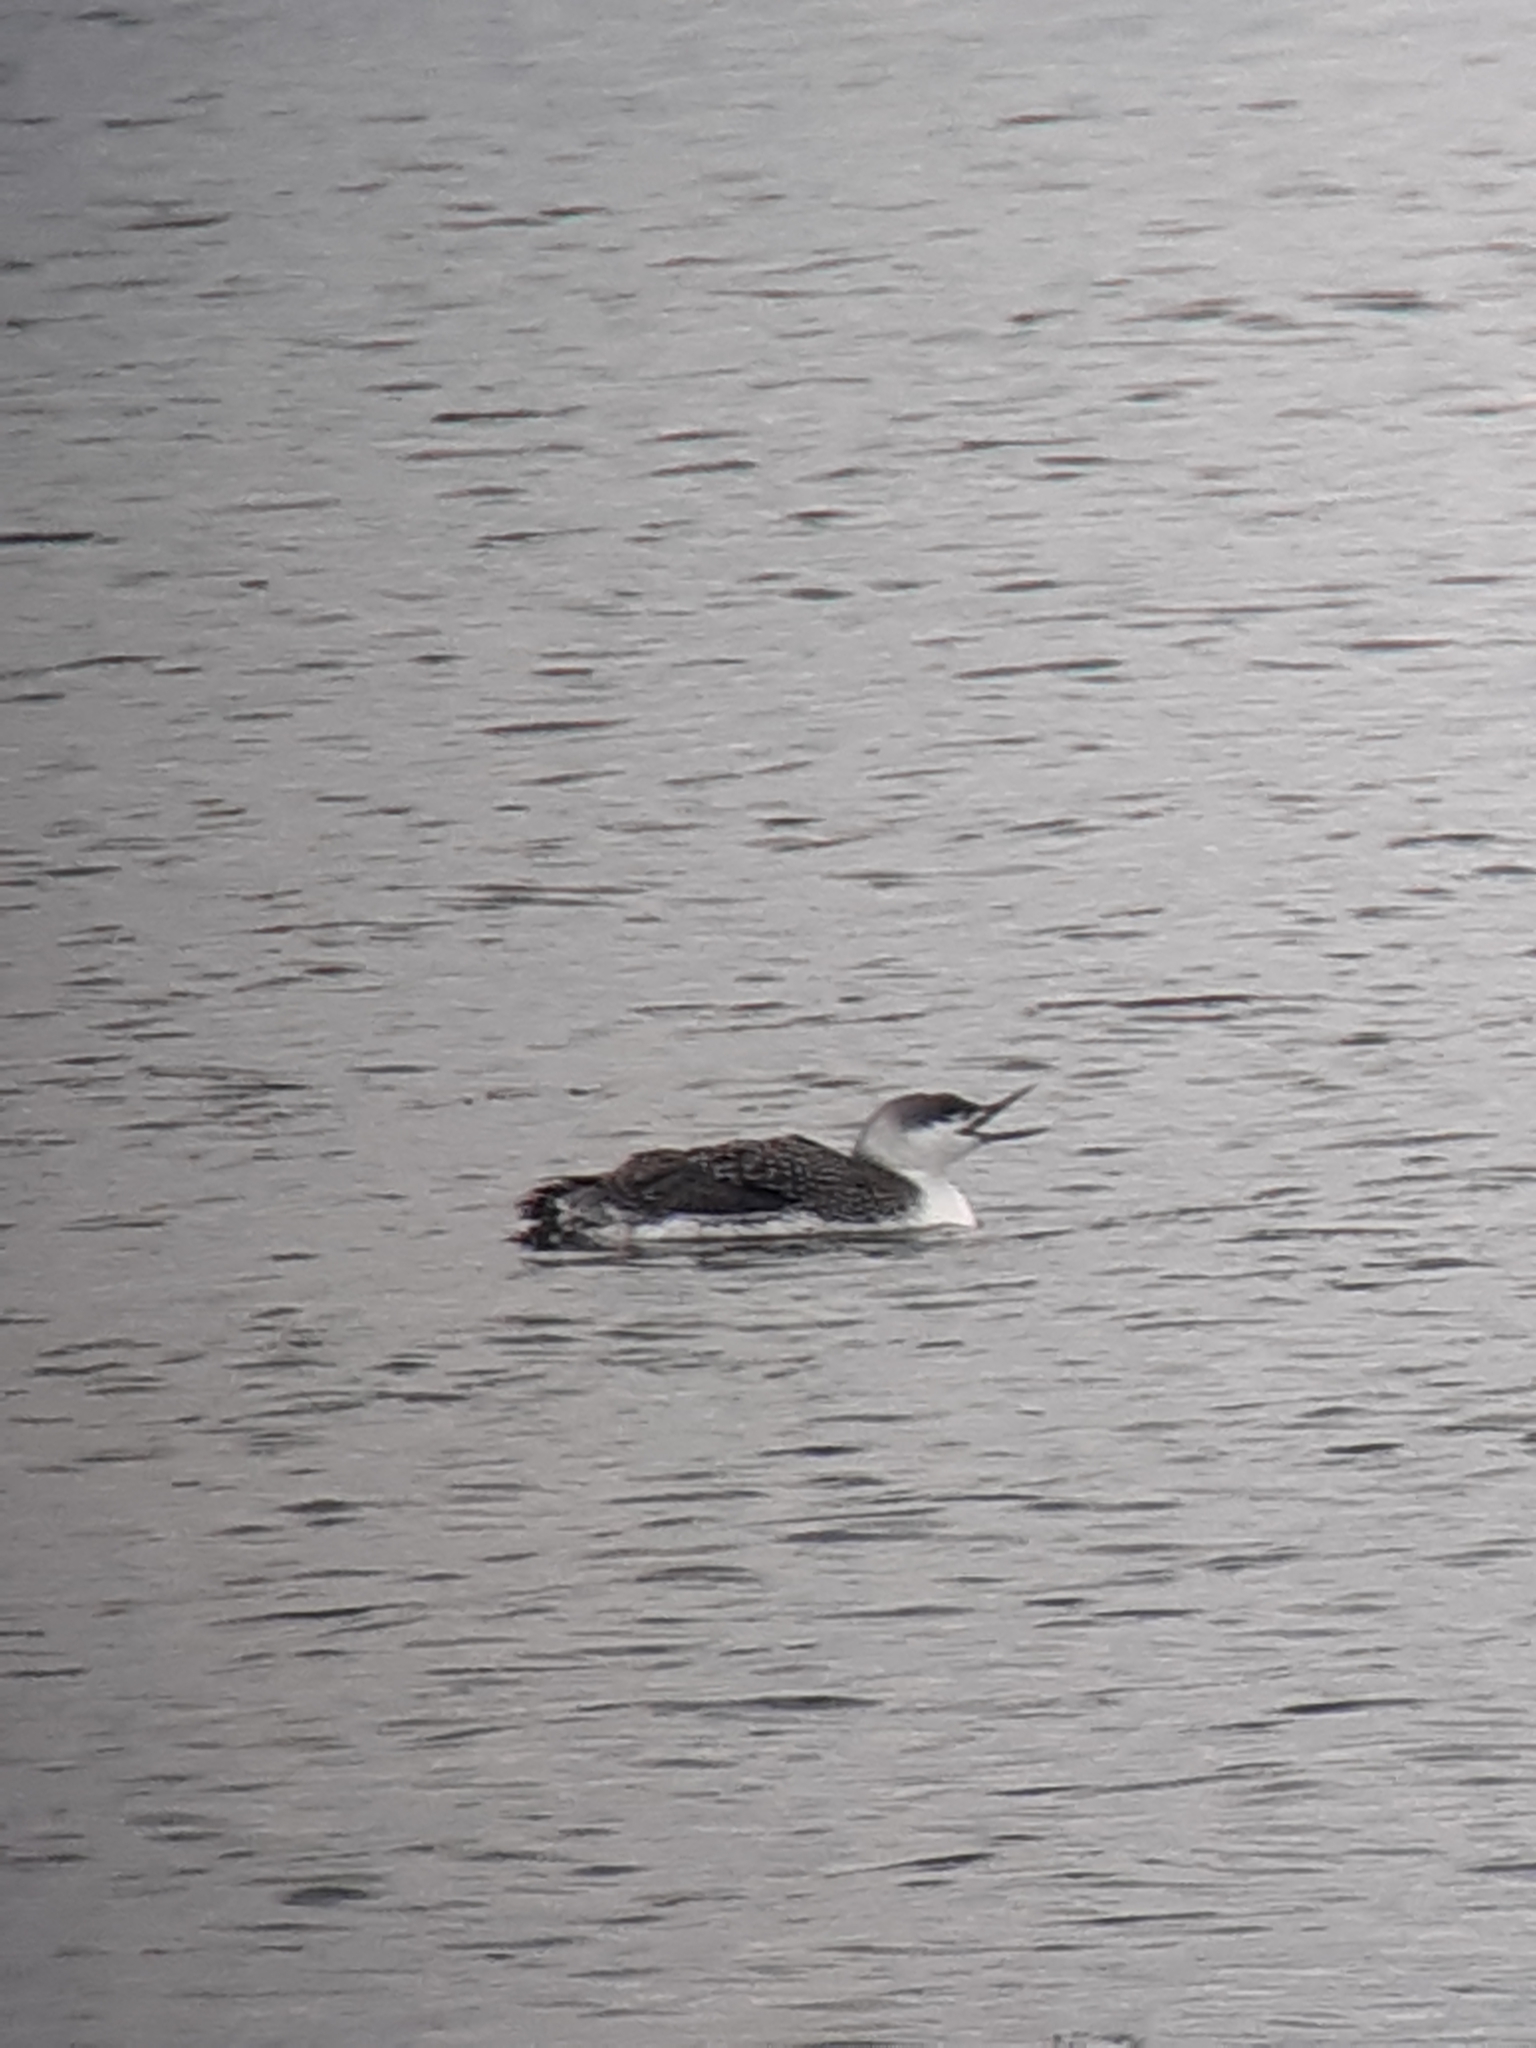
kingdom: Animalia
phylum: Chordata
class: Aves
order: Gaviiformes
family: Gaviidae
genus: Gavia
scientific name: Gavia stellata
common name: Red-throated loon
